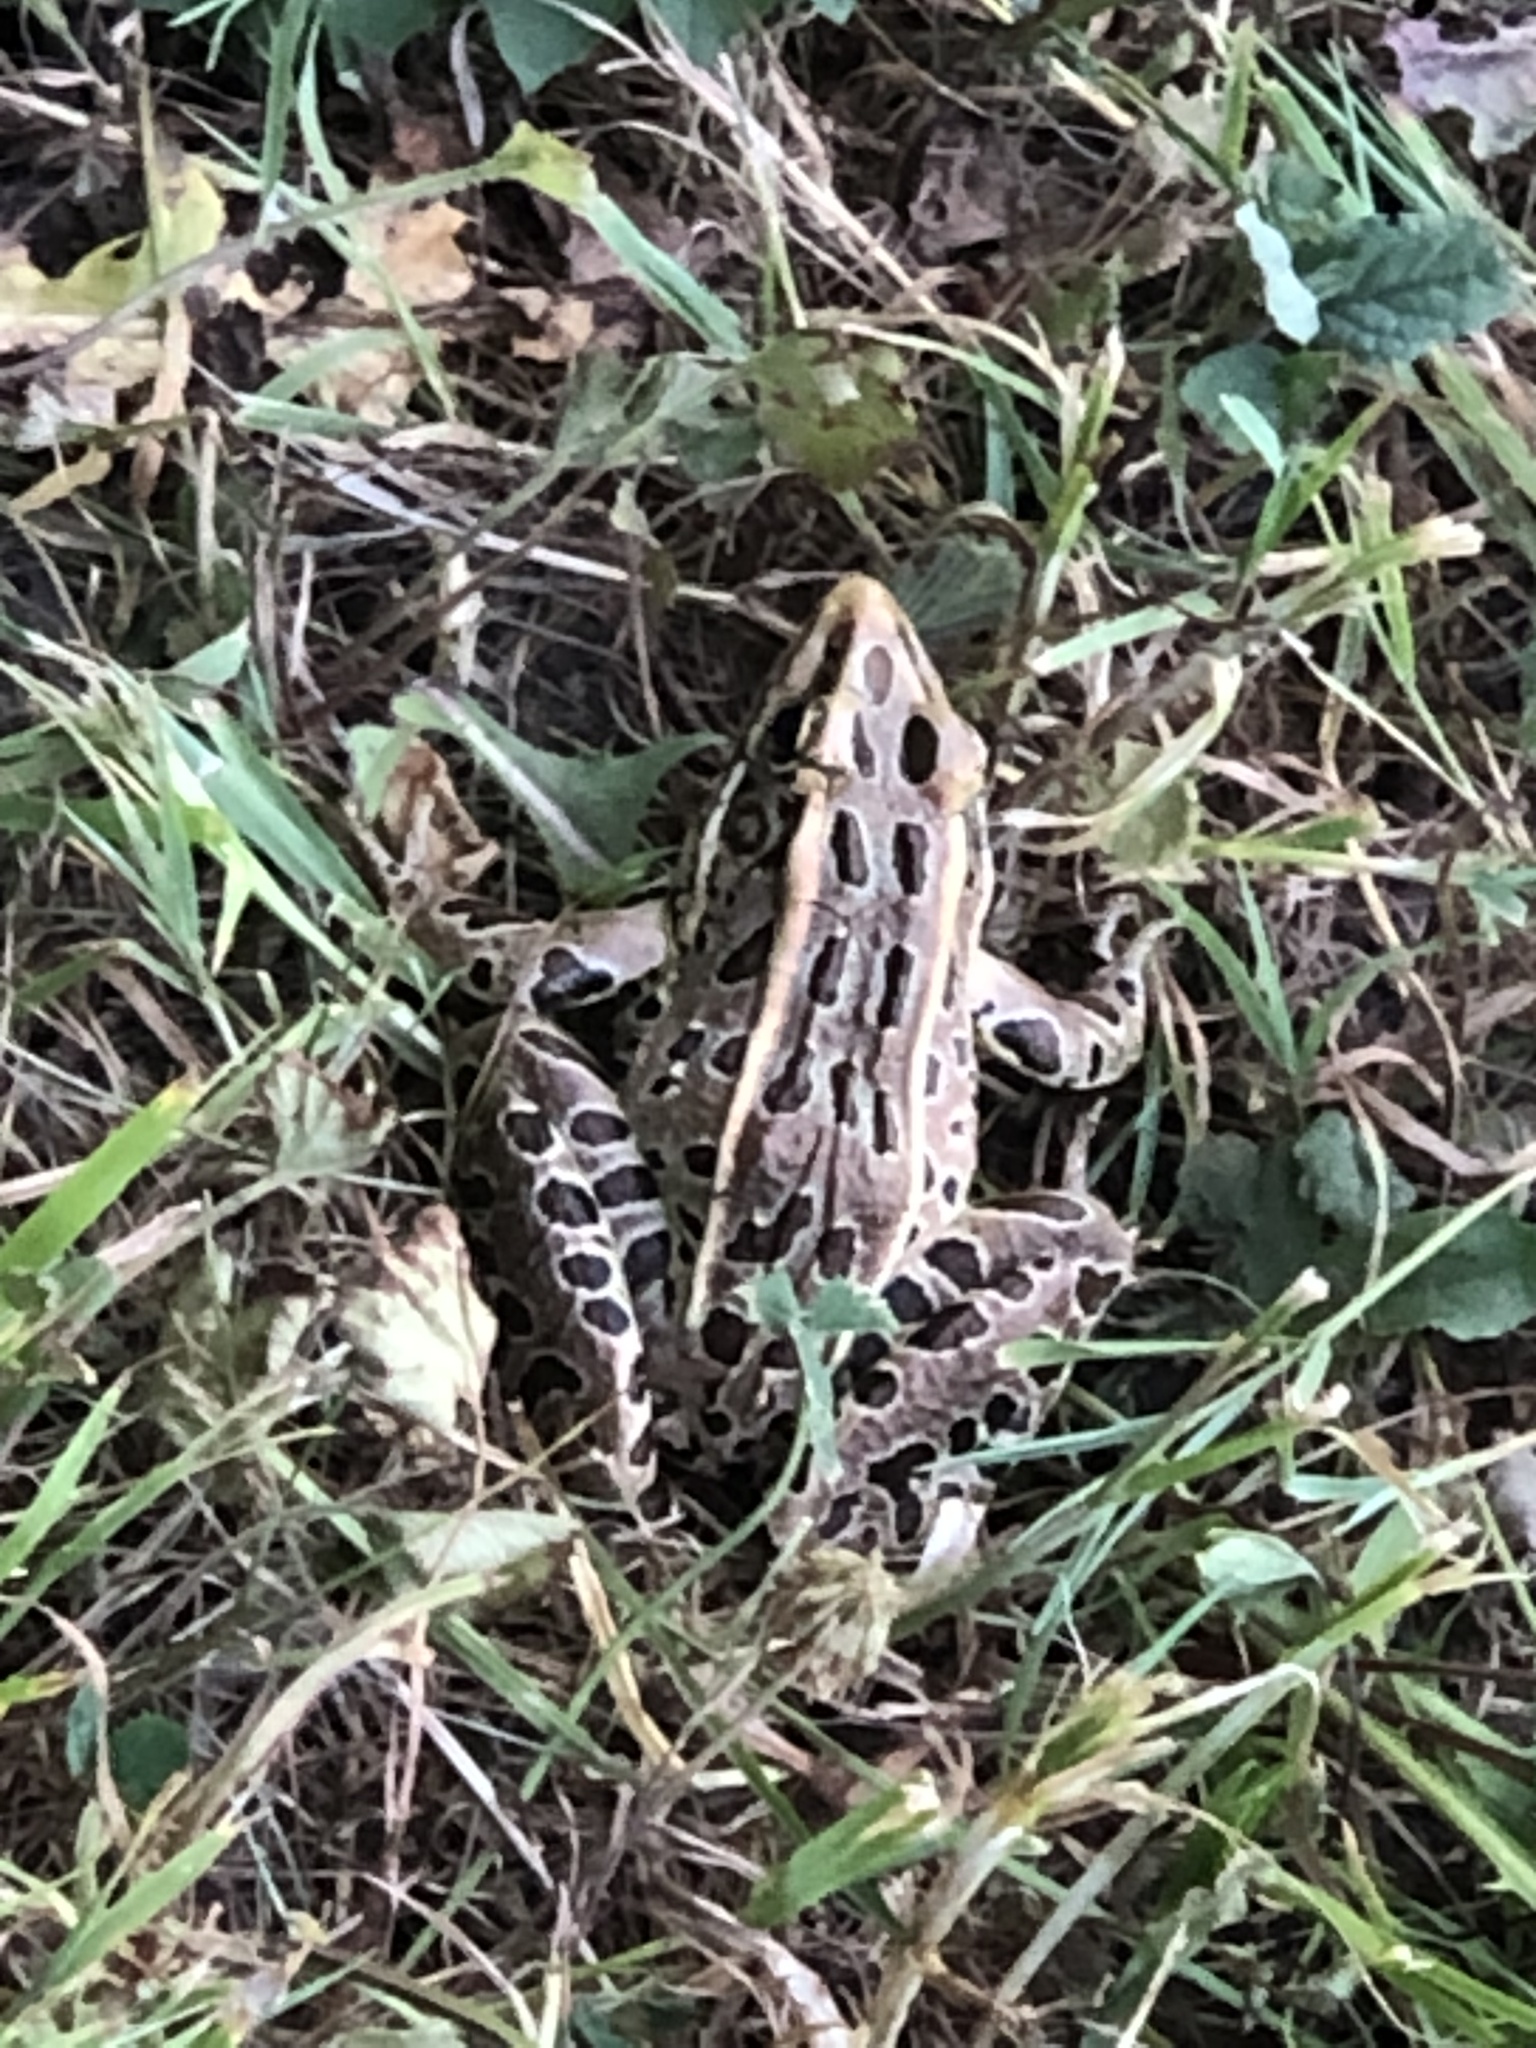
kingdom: Animalia
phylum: Chordata
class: Amphibia
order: Anura
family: Ranidae
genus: Lithobates
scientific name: Lithobates pipiens
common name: Northern leopard frog
